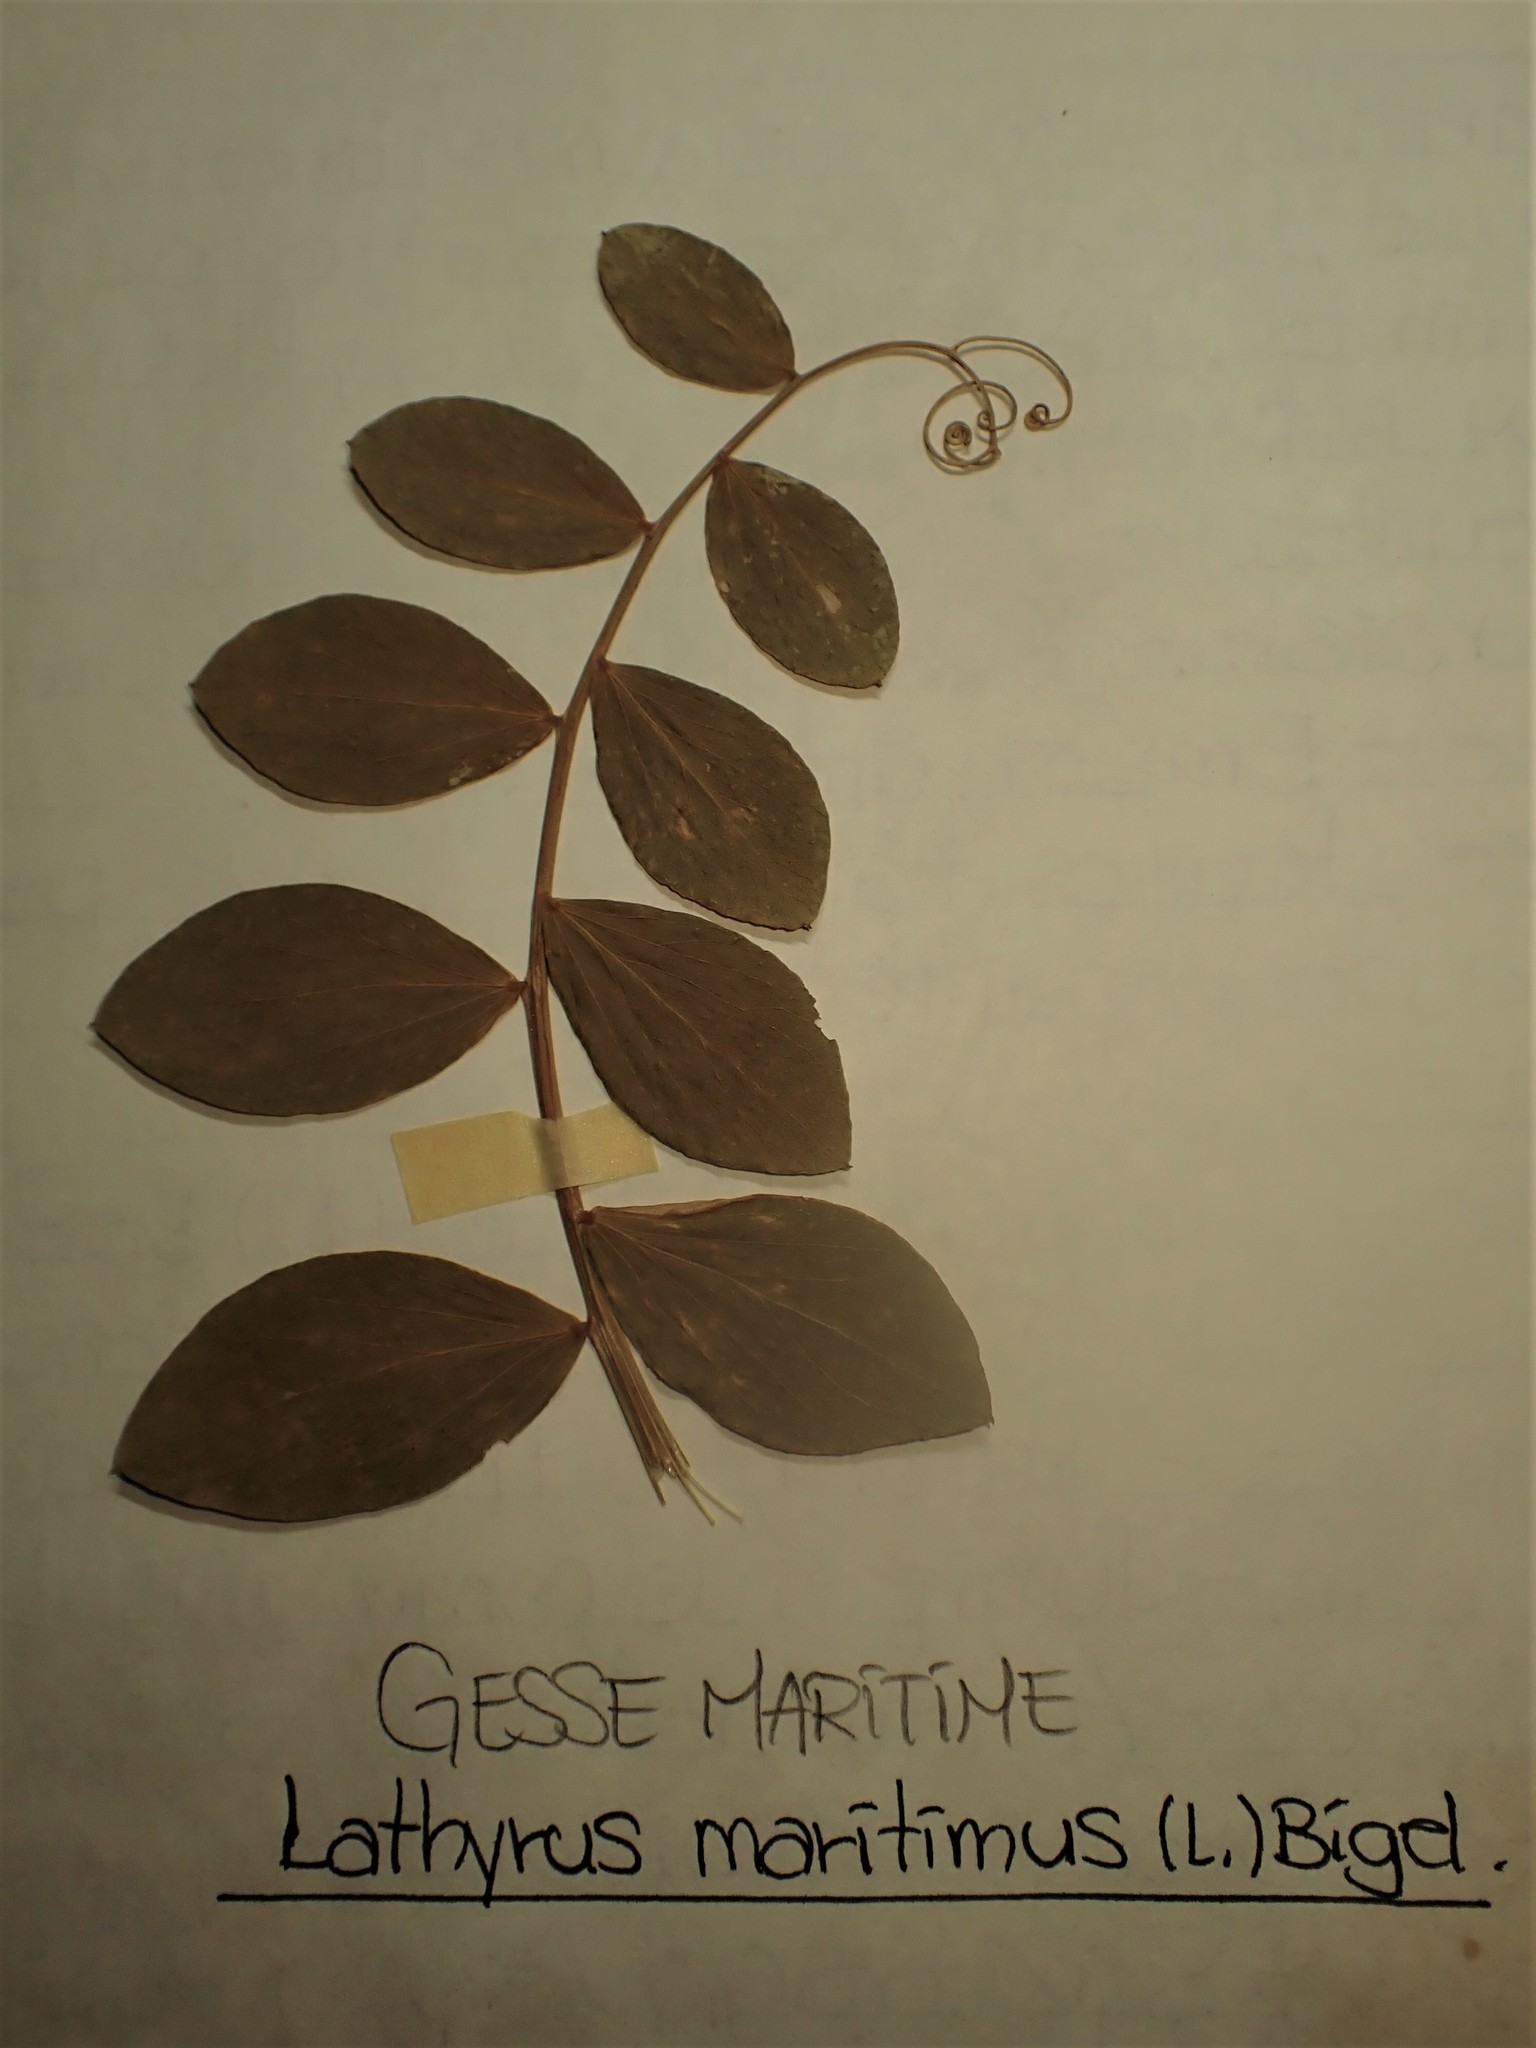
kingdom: Plantae
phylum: Tracheophyta
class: Magnoliopsida
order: Fabales
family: Fabaceae
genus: Lathyrus
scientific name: Lathyrus japonicus
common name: Sea pea
